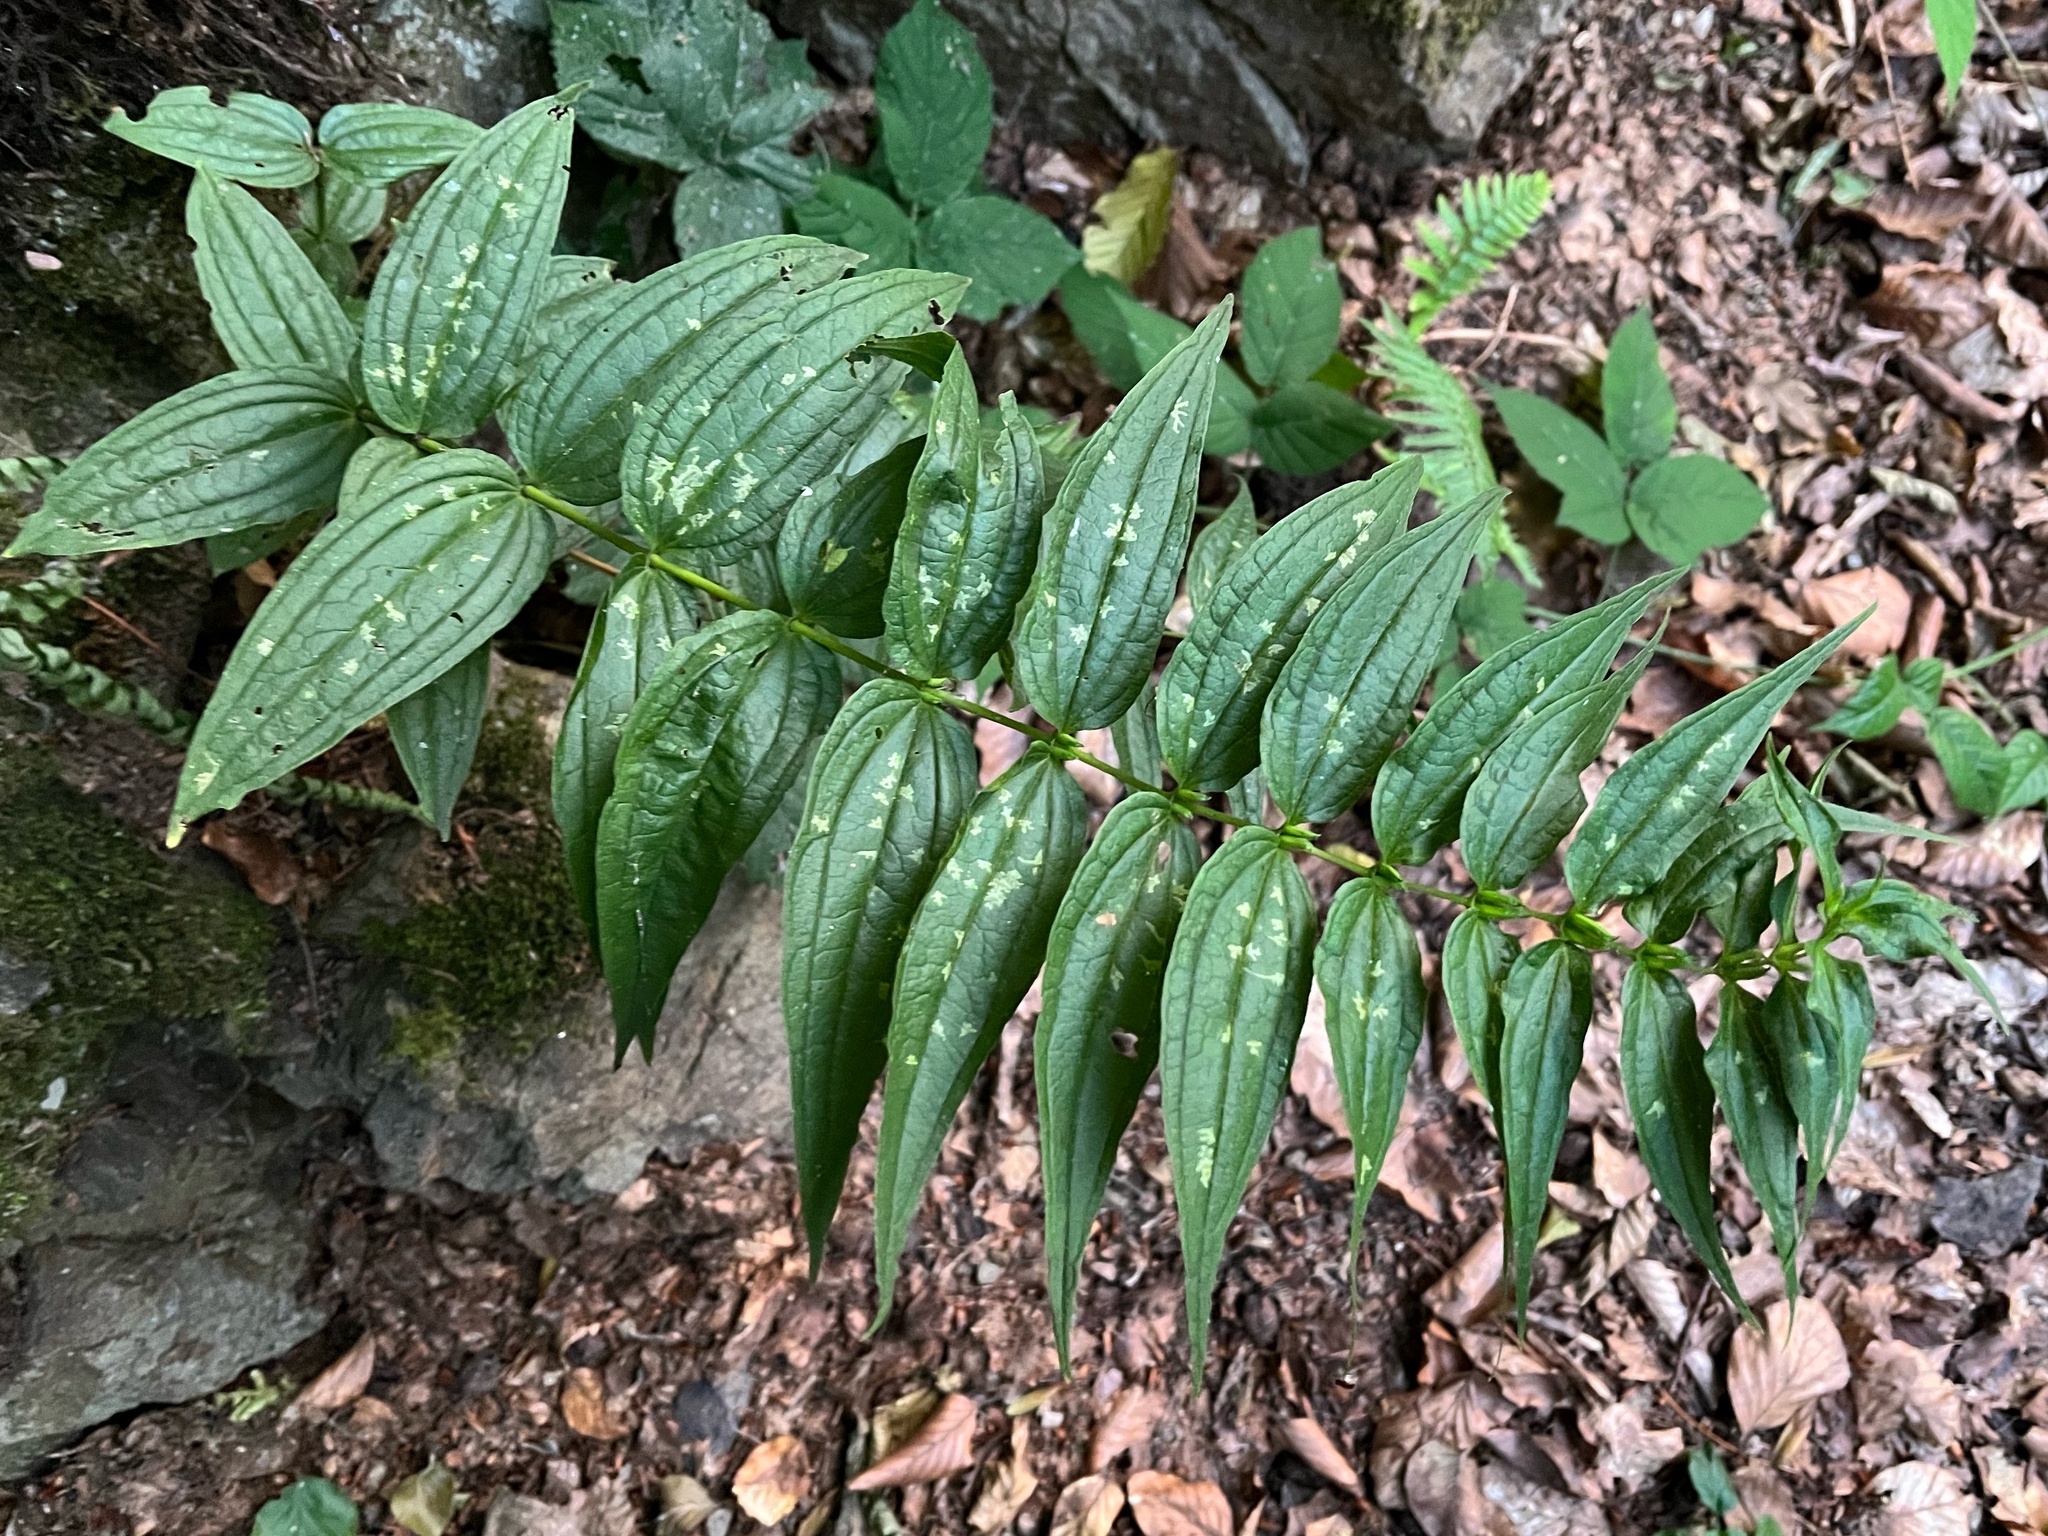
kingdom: Plantae
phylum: Tracheophyta
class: Magnoliopsida
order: Gentianales
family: Gentianaceae
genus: Gentiana
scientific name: Gentiana asclepiadea
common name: Willow gentian
